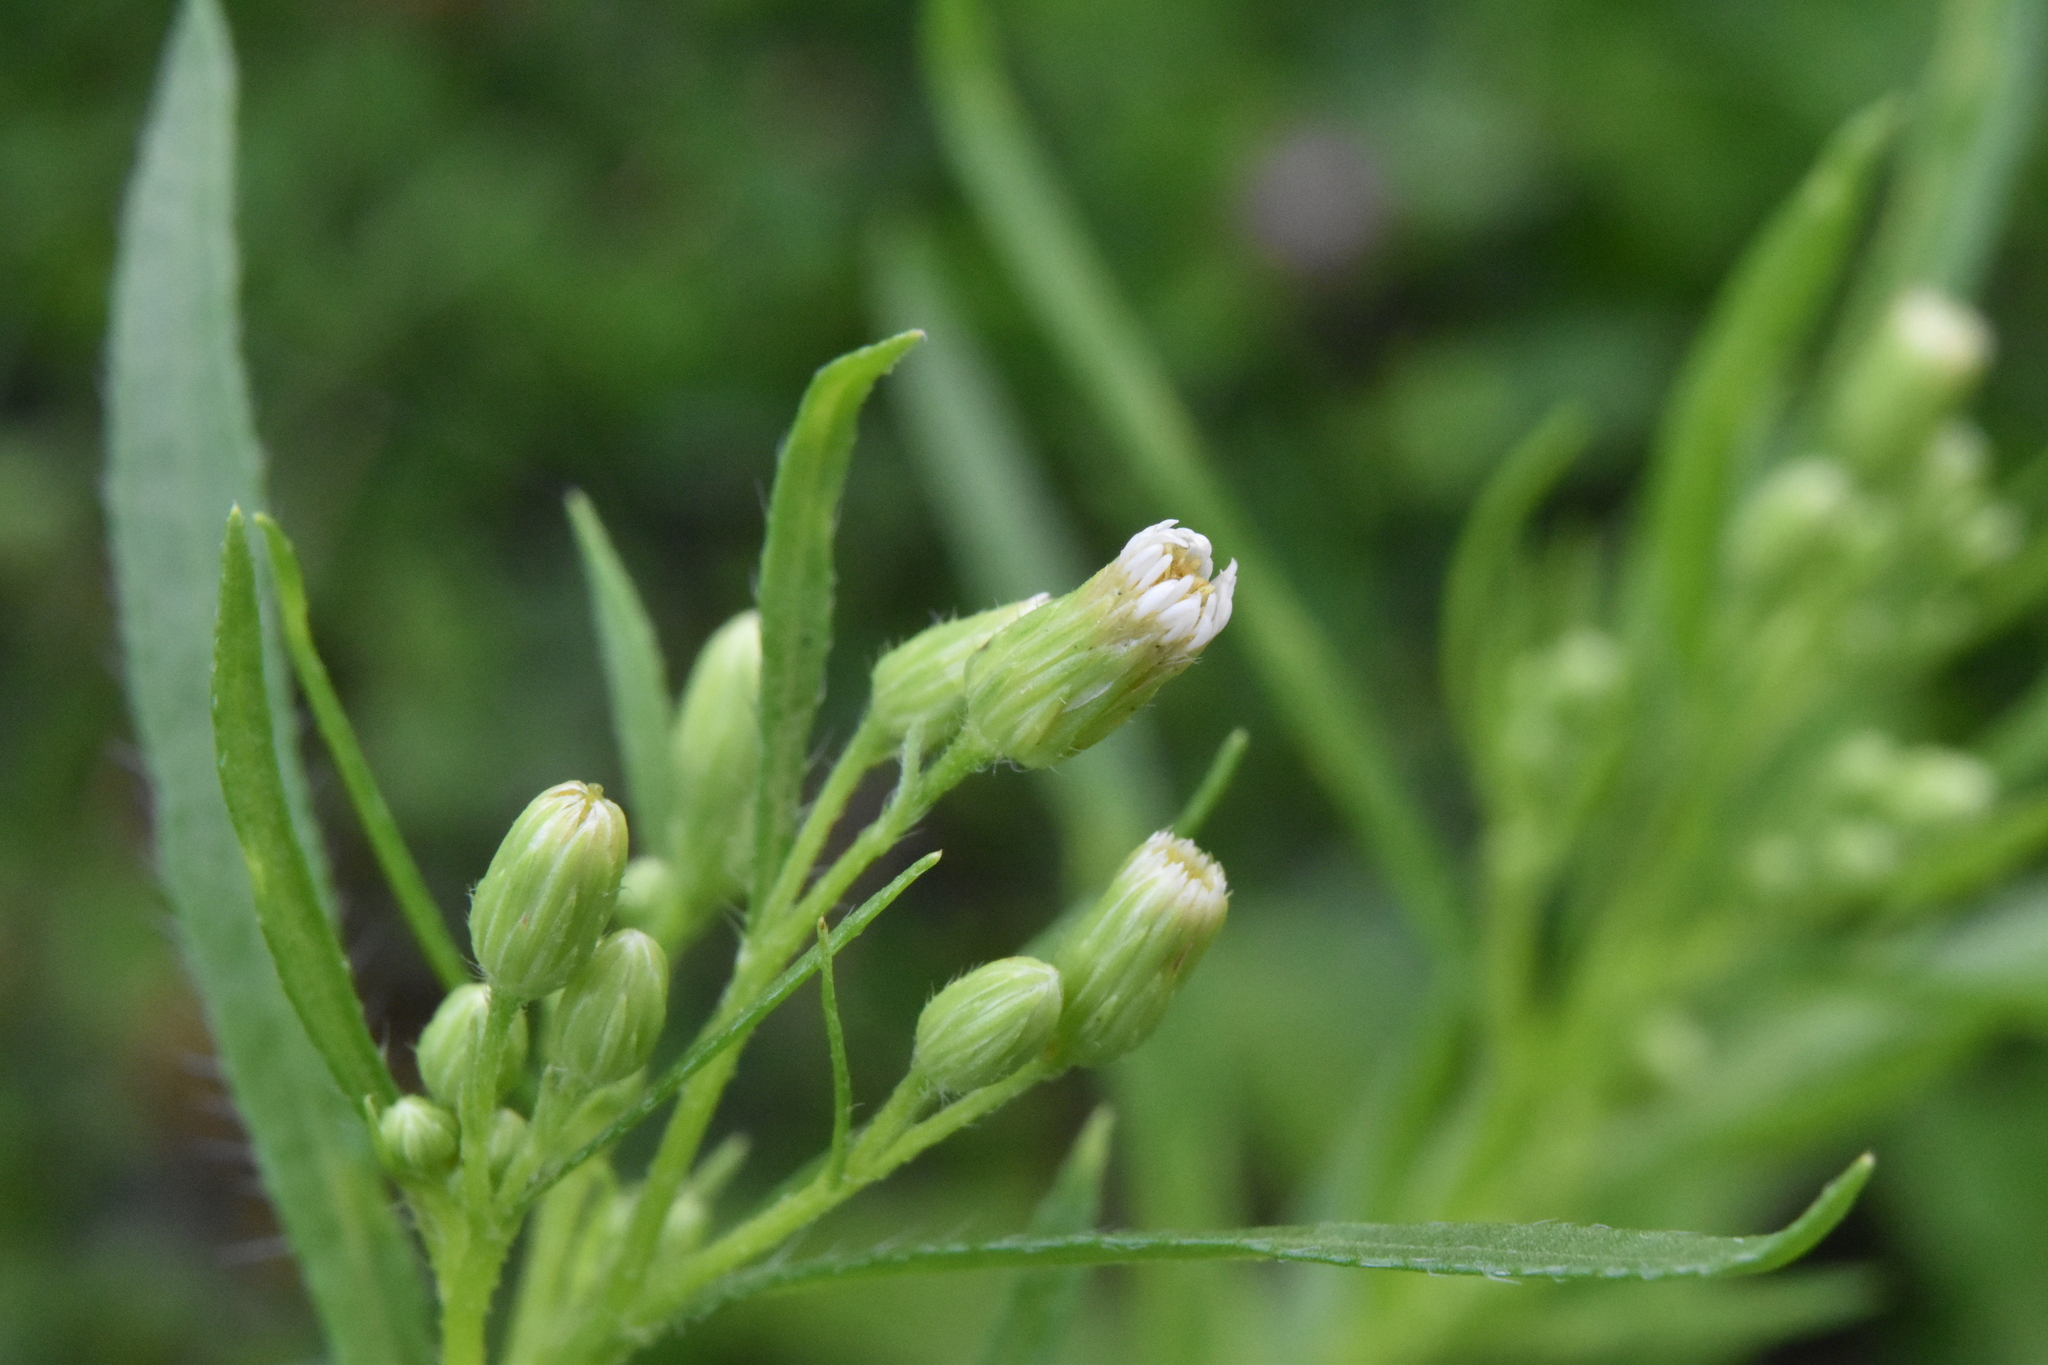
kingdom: Plantae
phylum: Tracheophyta
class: Magnoliopsida
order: Asterales
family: Asteraceae
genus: Erigeron
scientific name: Erigeron canadensis
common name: Canadian fleabane
